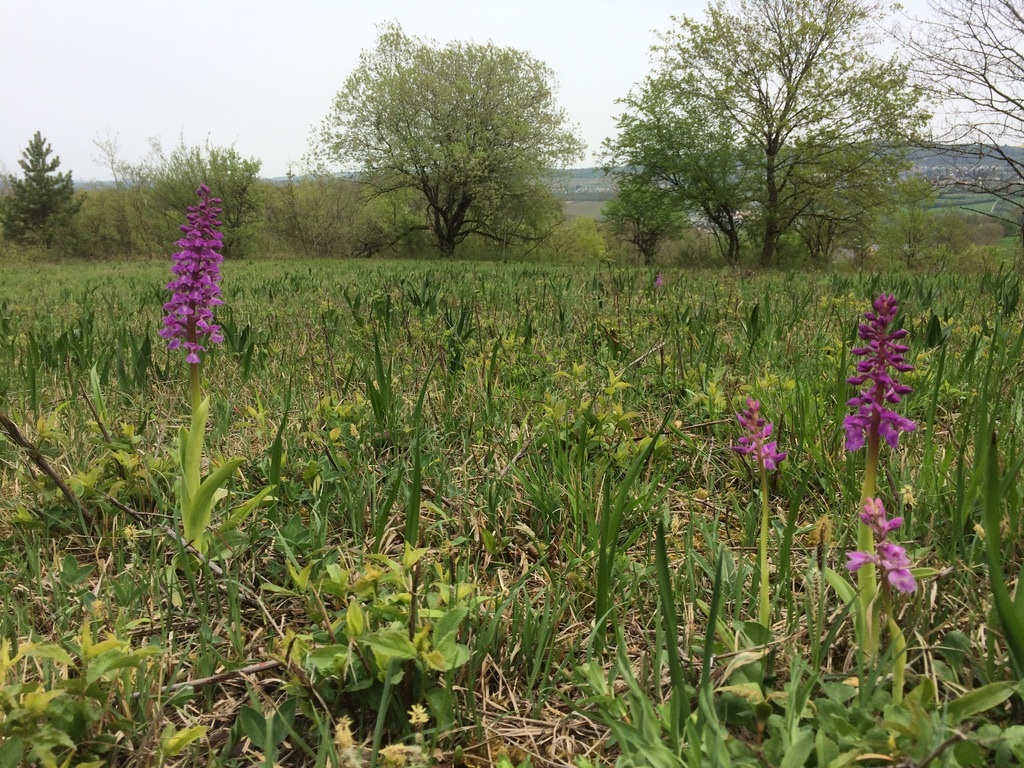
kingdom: Plantae
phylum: Tracheophyta
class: Liliopsida
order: Asparagales
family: Orchidaceae
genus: Orchis
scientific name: Orchis mascula
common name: Early-purple orchid
